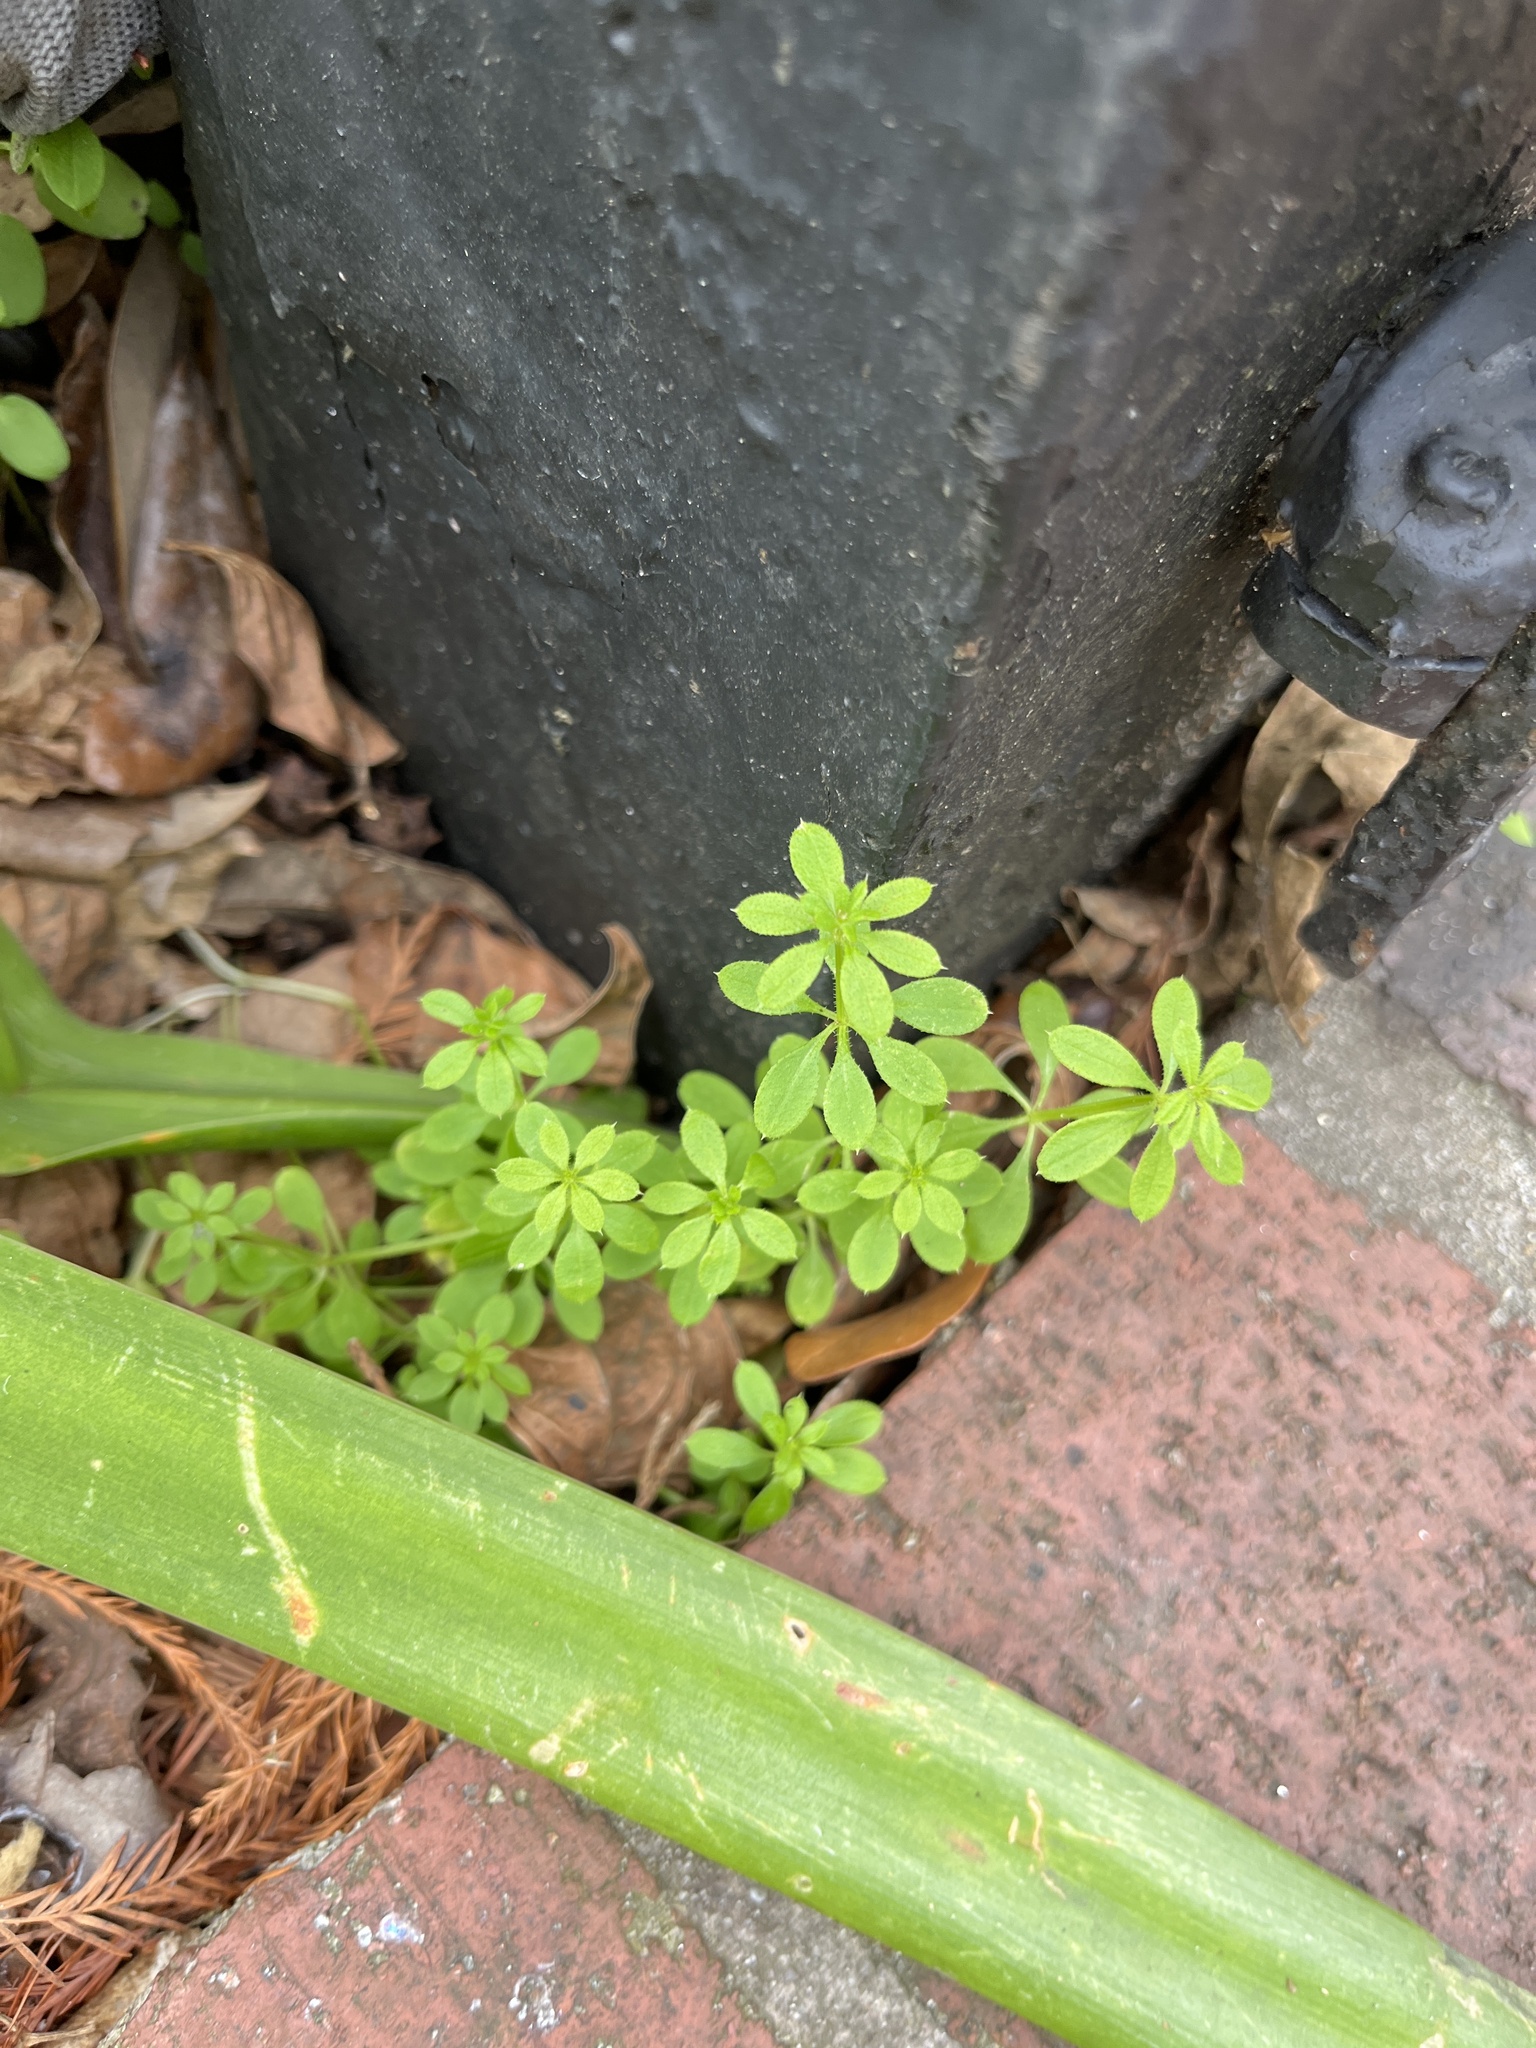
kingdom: Plantae
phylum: Tracheophyta
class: Magnoliopsida
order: Gentianales
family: Rubiaceae
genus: Galium
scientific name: Galium aparine
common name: Cleavers
